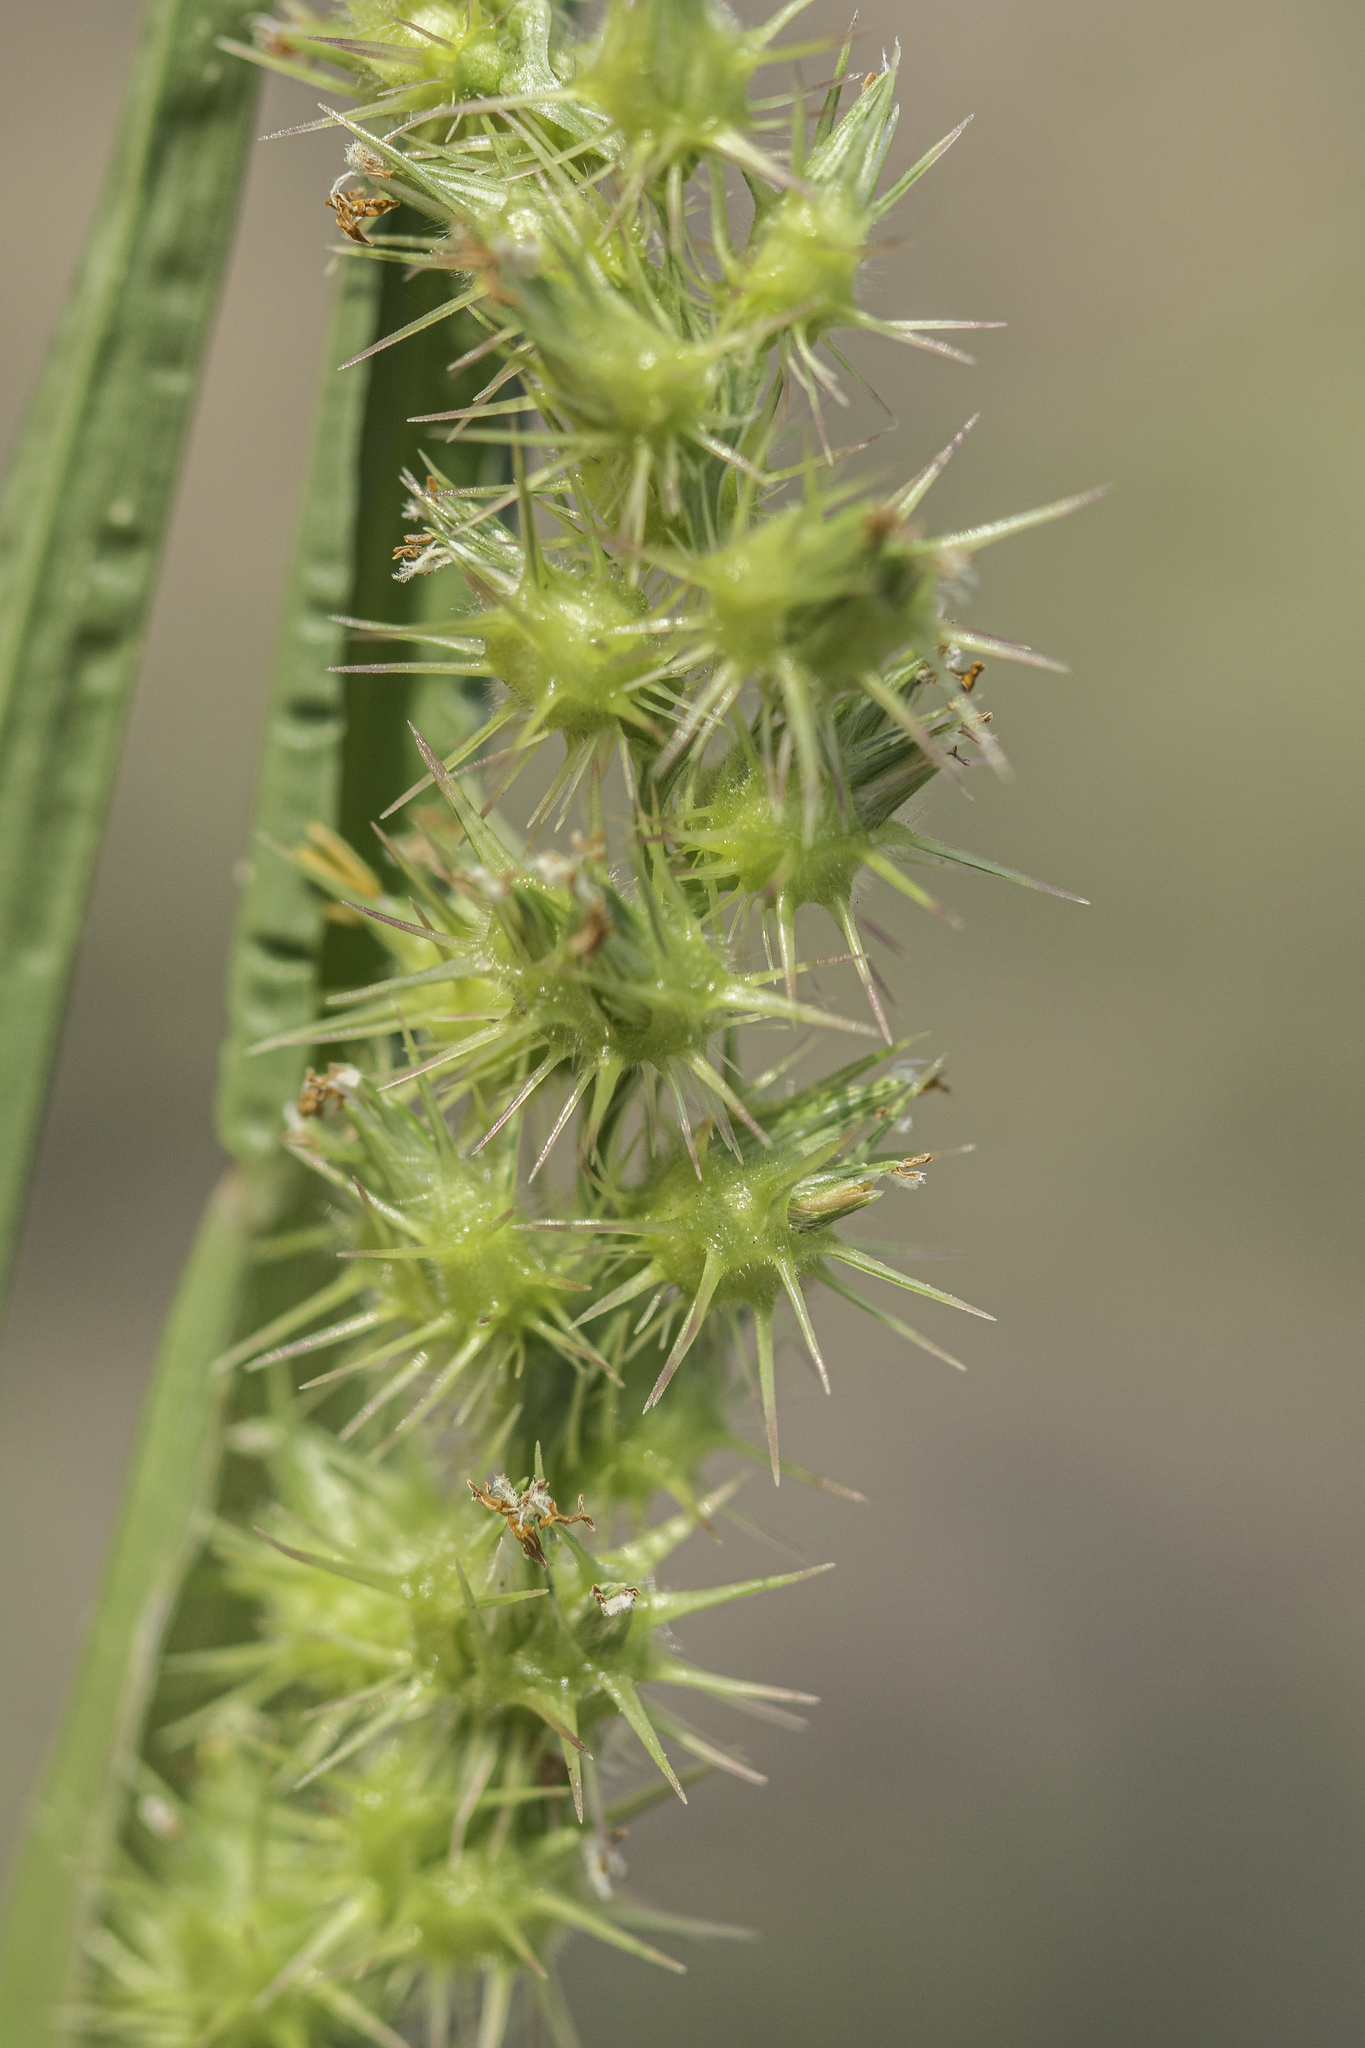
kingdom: Plantae
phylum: Tracheophyta
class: Liliopsida
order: Poales
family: Poaceae
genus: Cenchrus
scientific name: Cenchrus spinifex
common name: Coast sandbur
